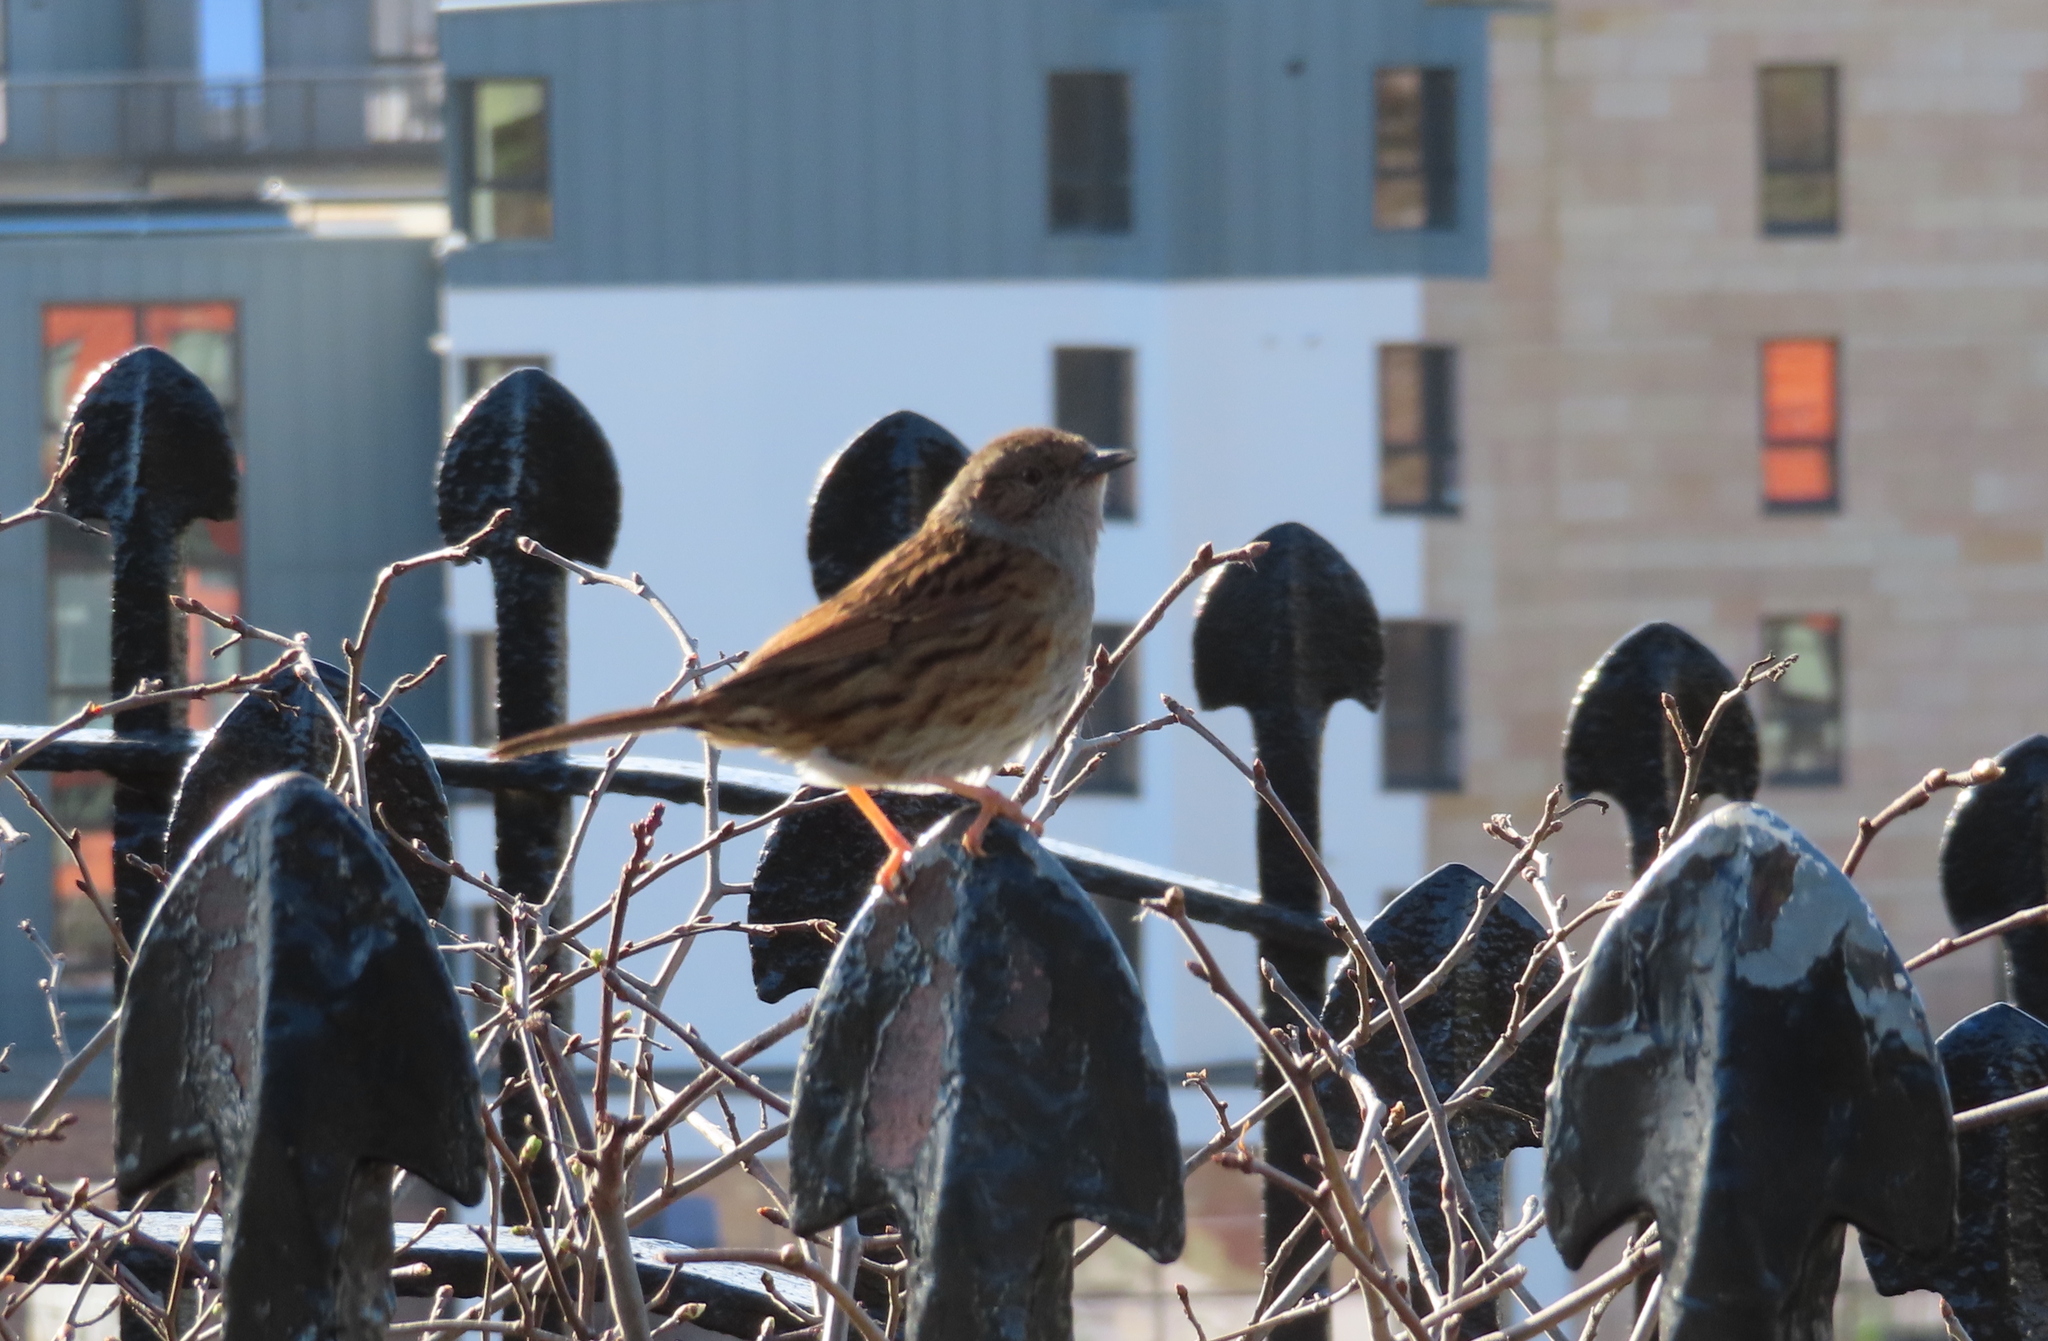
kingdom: Animalia
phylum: Chordata
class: Aves
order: Passeriformes
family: Prunellidae
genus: Prunella
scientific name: Prunella modularis
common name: Dunnock
